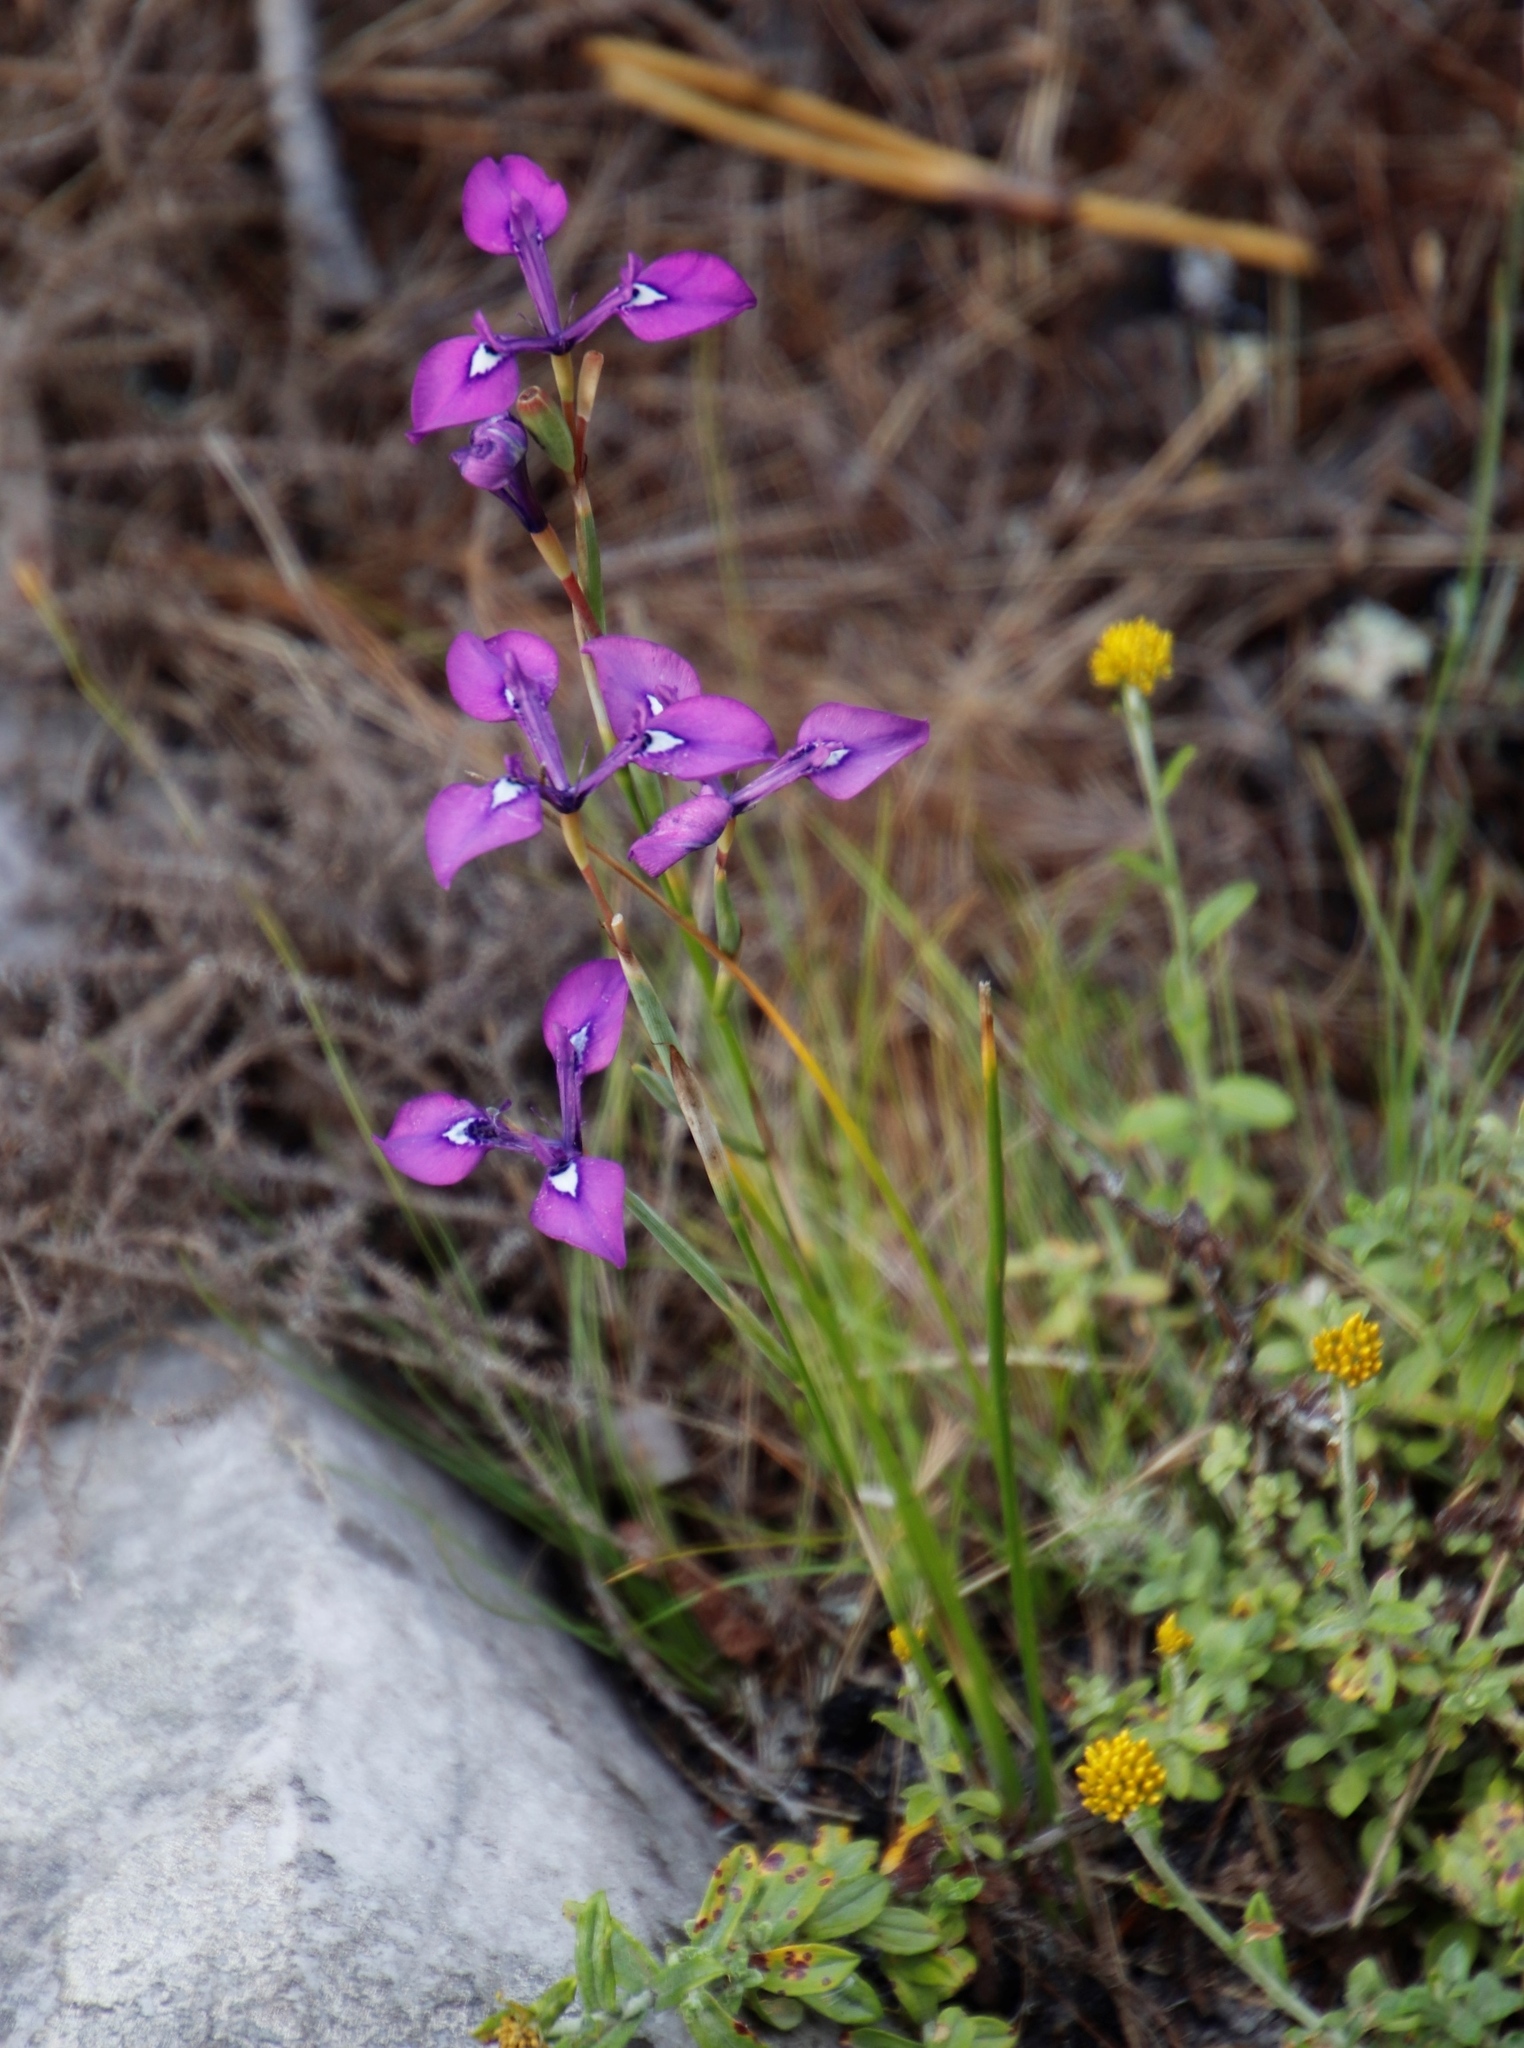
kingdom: Plantae
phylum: Tracheophyta
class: Liliopsida
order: Asparagales
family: Iridaceae
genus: Moraea
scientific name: Moraea tripetala
